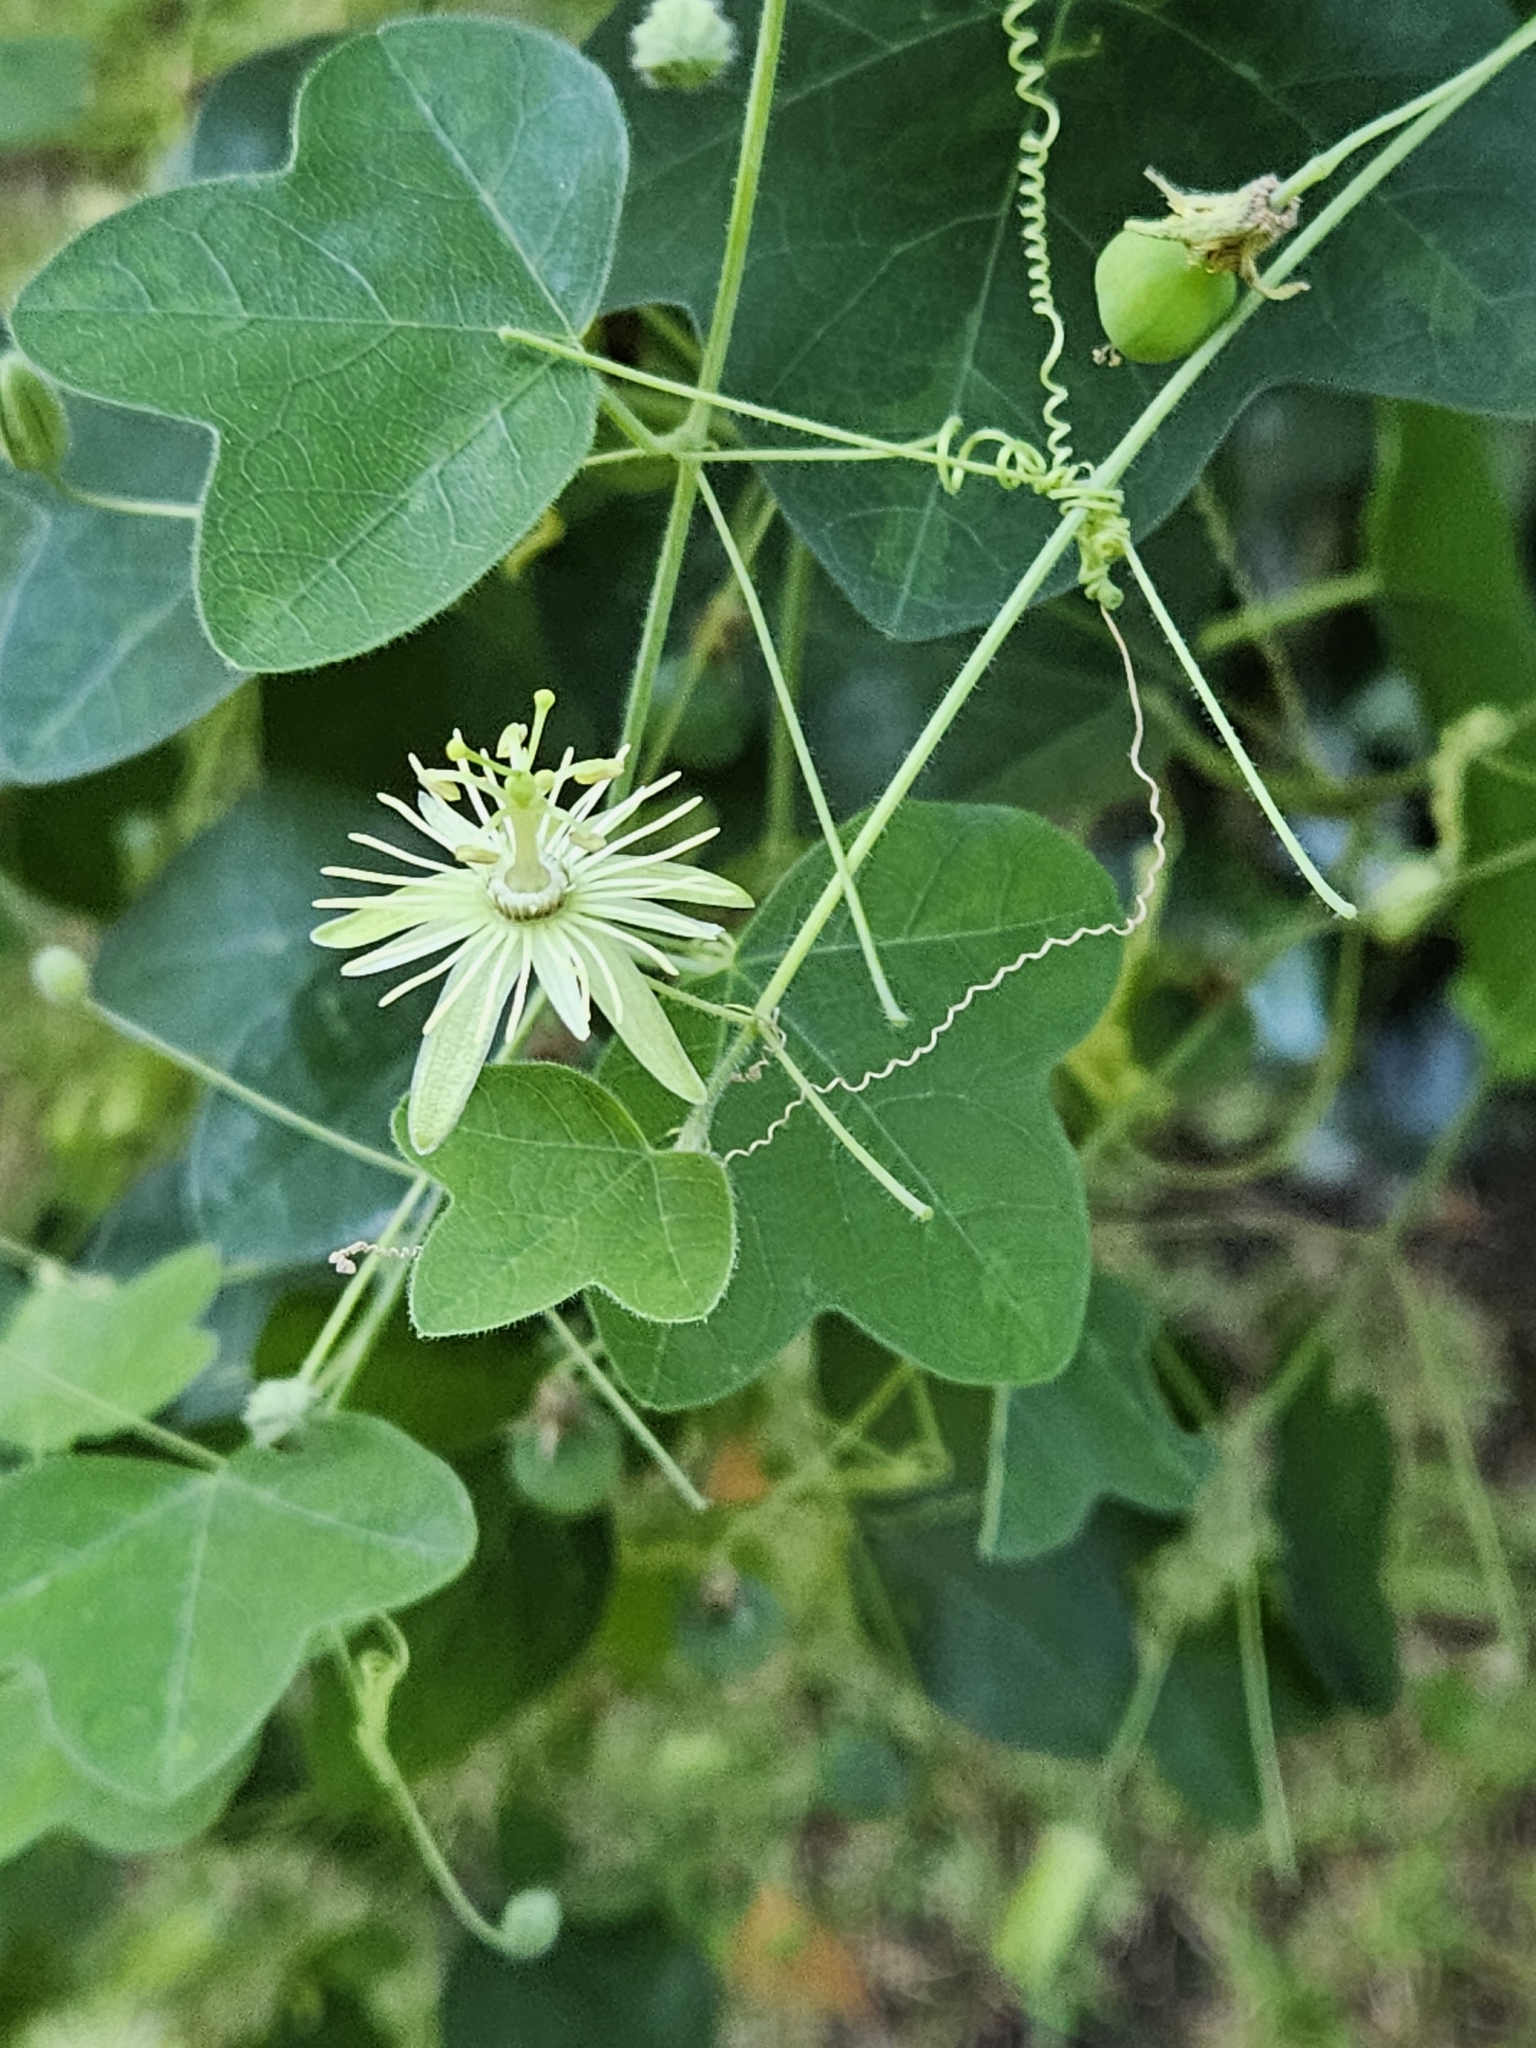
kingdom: Plantae
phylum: Tracheophyta
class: Magnoliopsida
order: Malpighiales
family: Passifloraceae
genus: Passiflora
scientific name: Passiflora lutea
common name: Yellow passionflower
